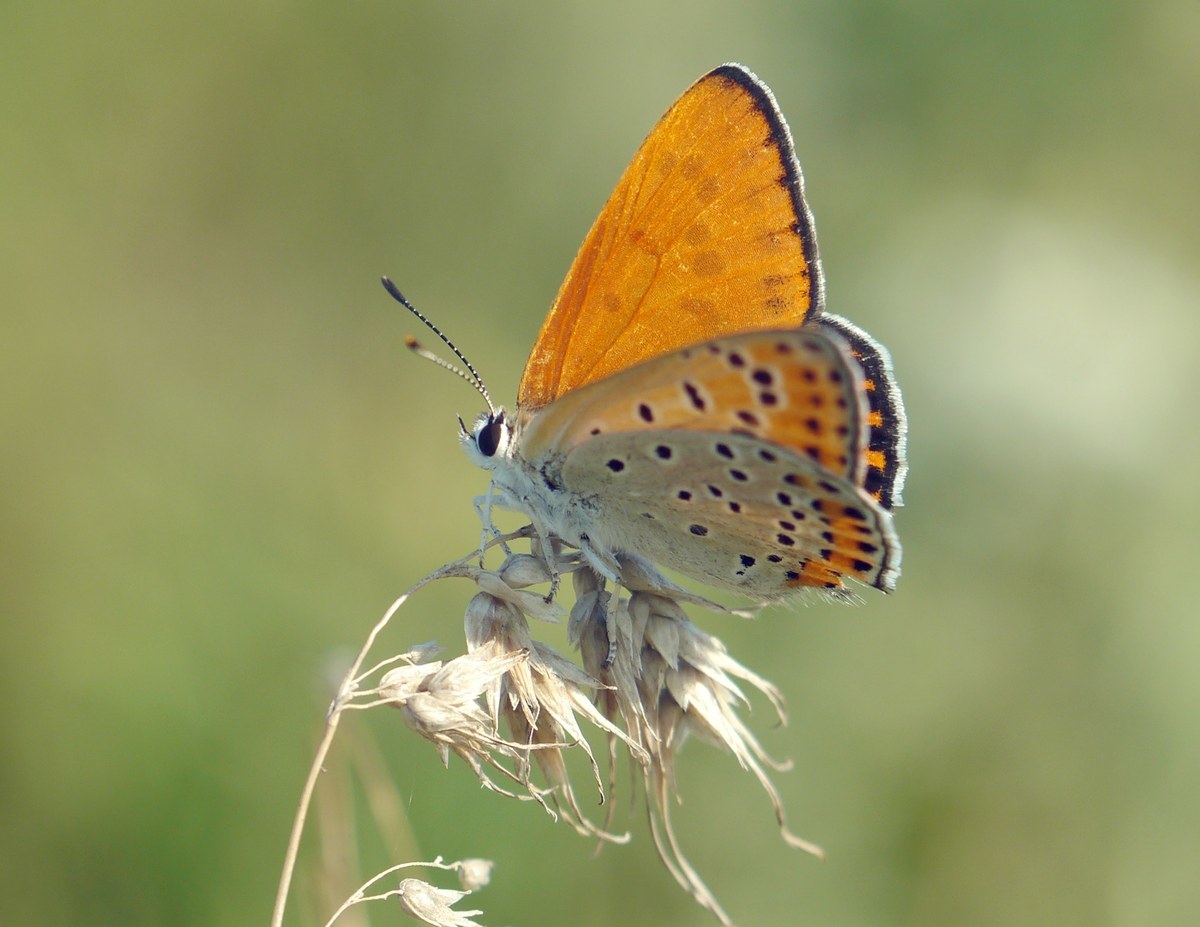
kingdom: Animalia
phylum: Arthropoda
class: Insecta
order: Lepidoptera
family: Lycaenidae
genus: Thersamonia
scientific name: Thersamonia thersamon
